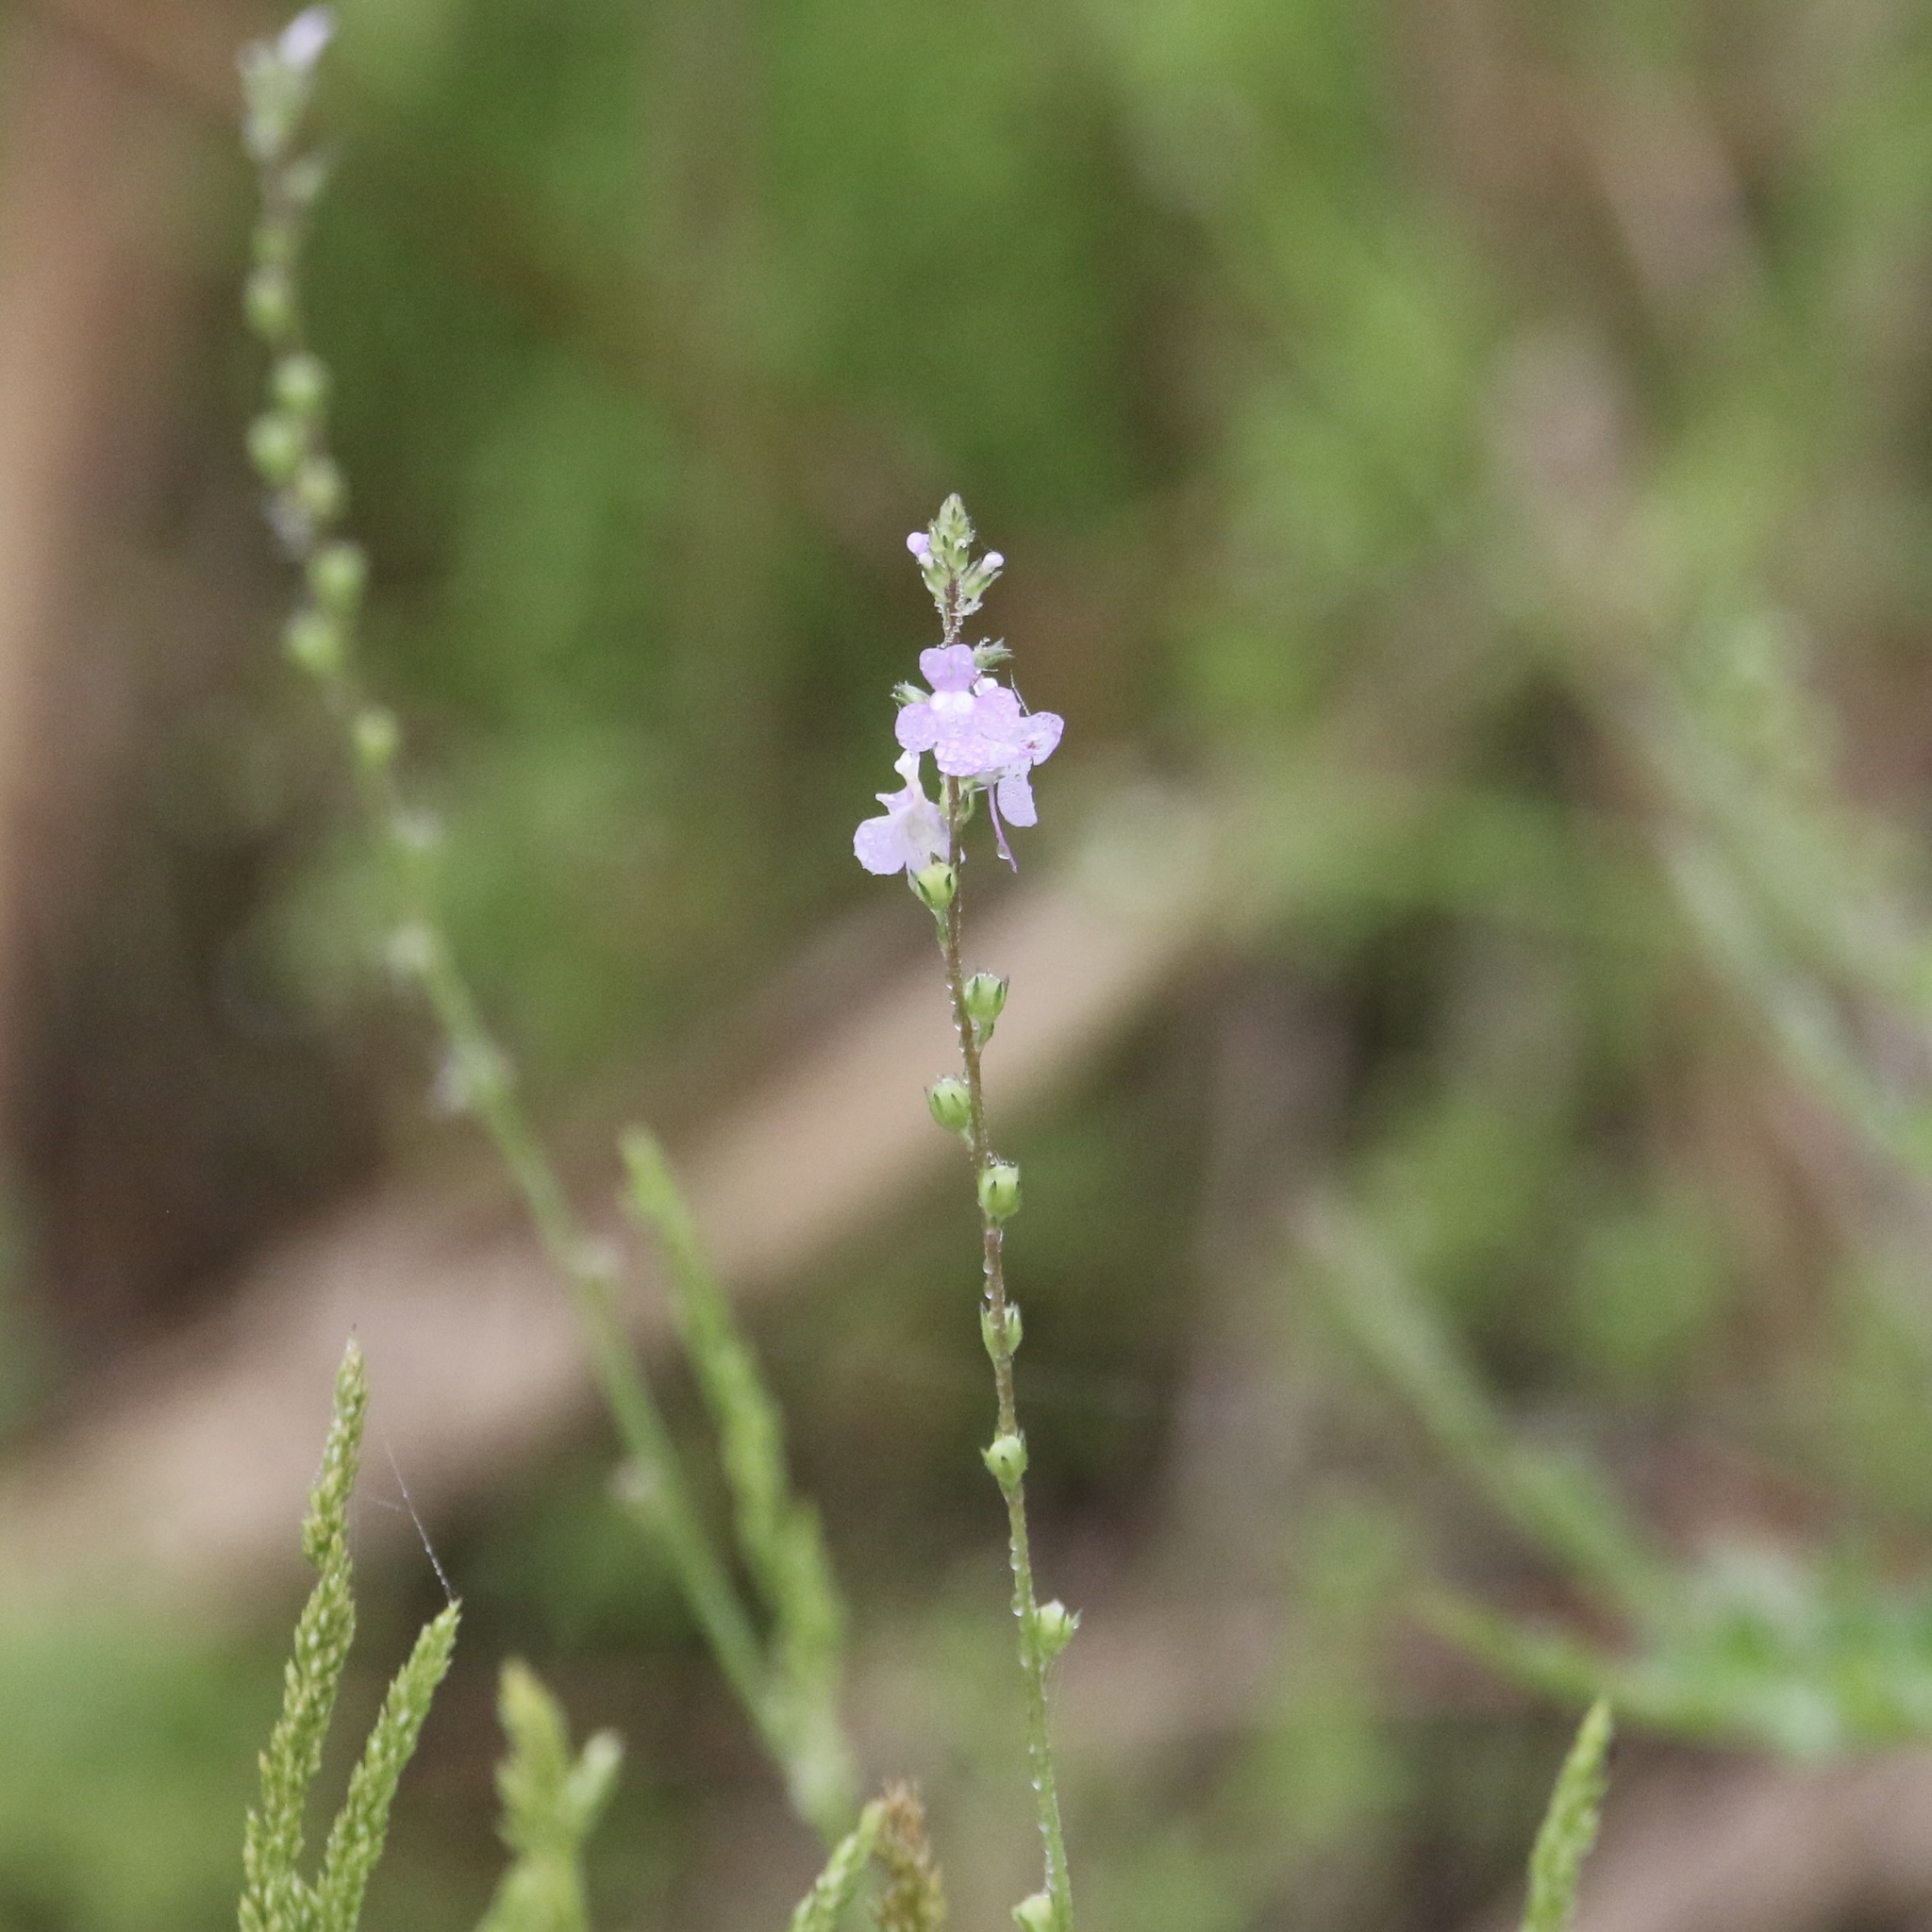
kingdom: Plantae
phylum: Tracheophyta
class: Magnoliopsida
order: Lamiales
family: Plantaginaceae
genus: Nuttallanthus
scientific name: Nuttallanthus canadensis
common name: Blue toadflax
